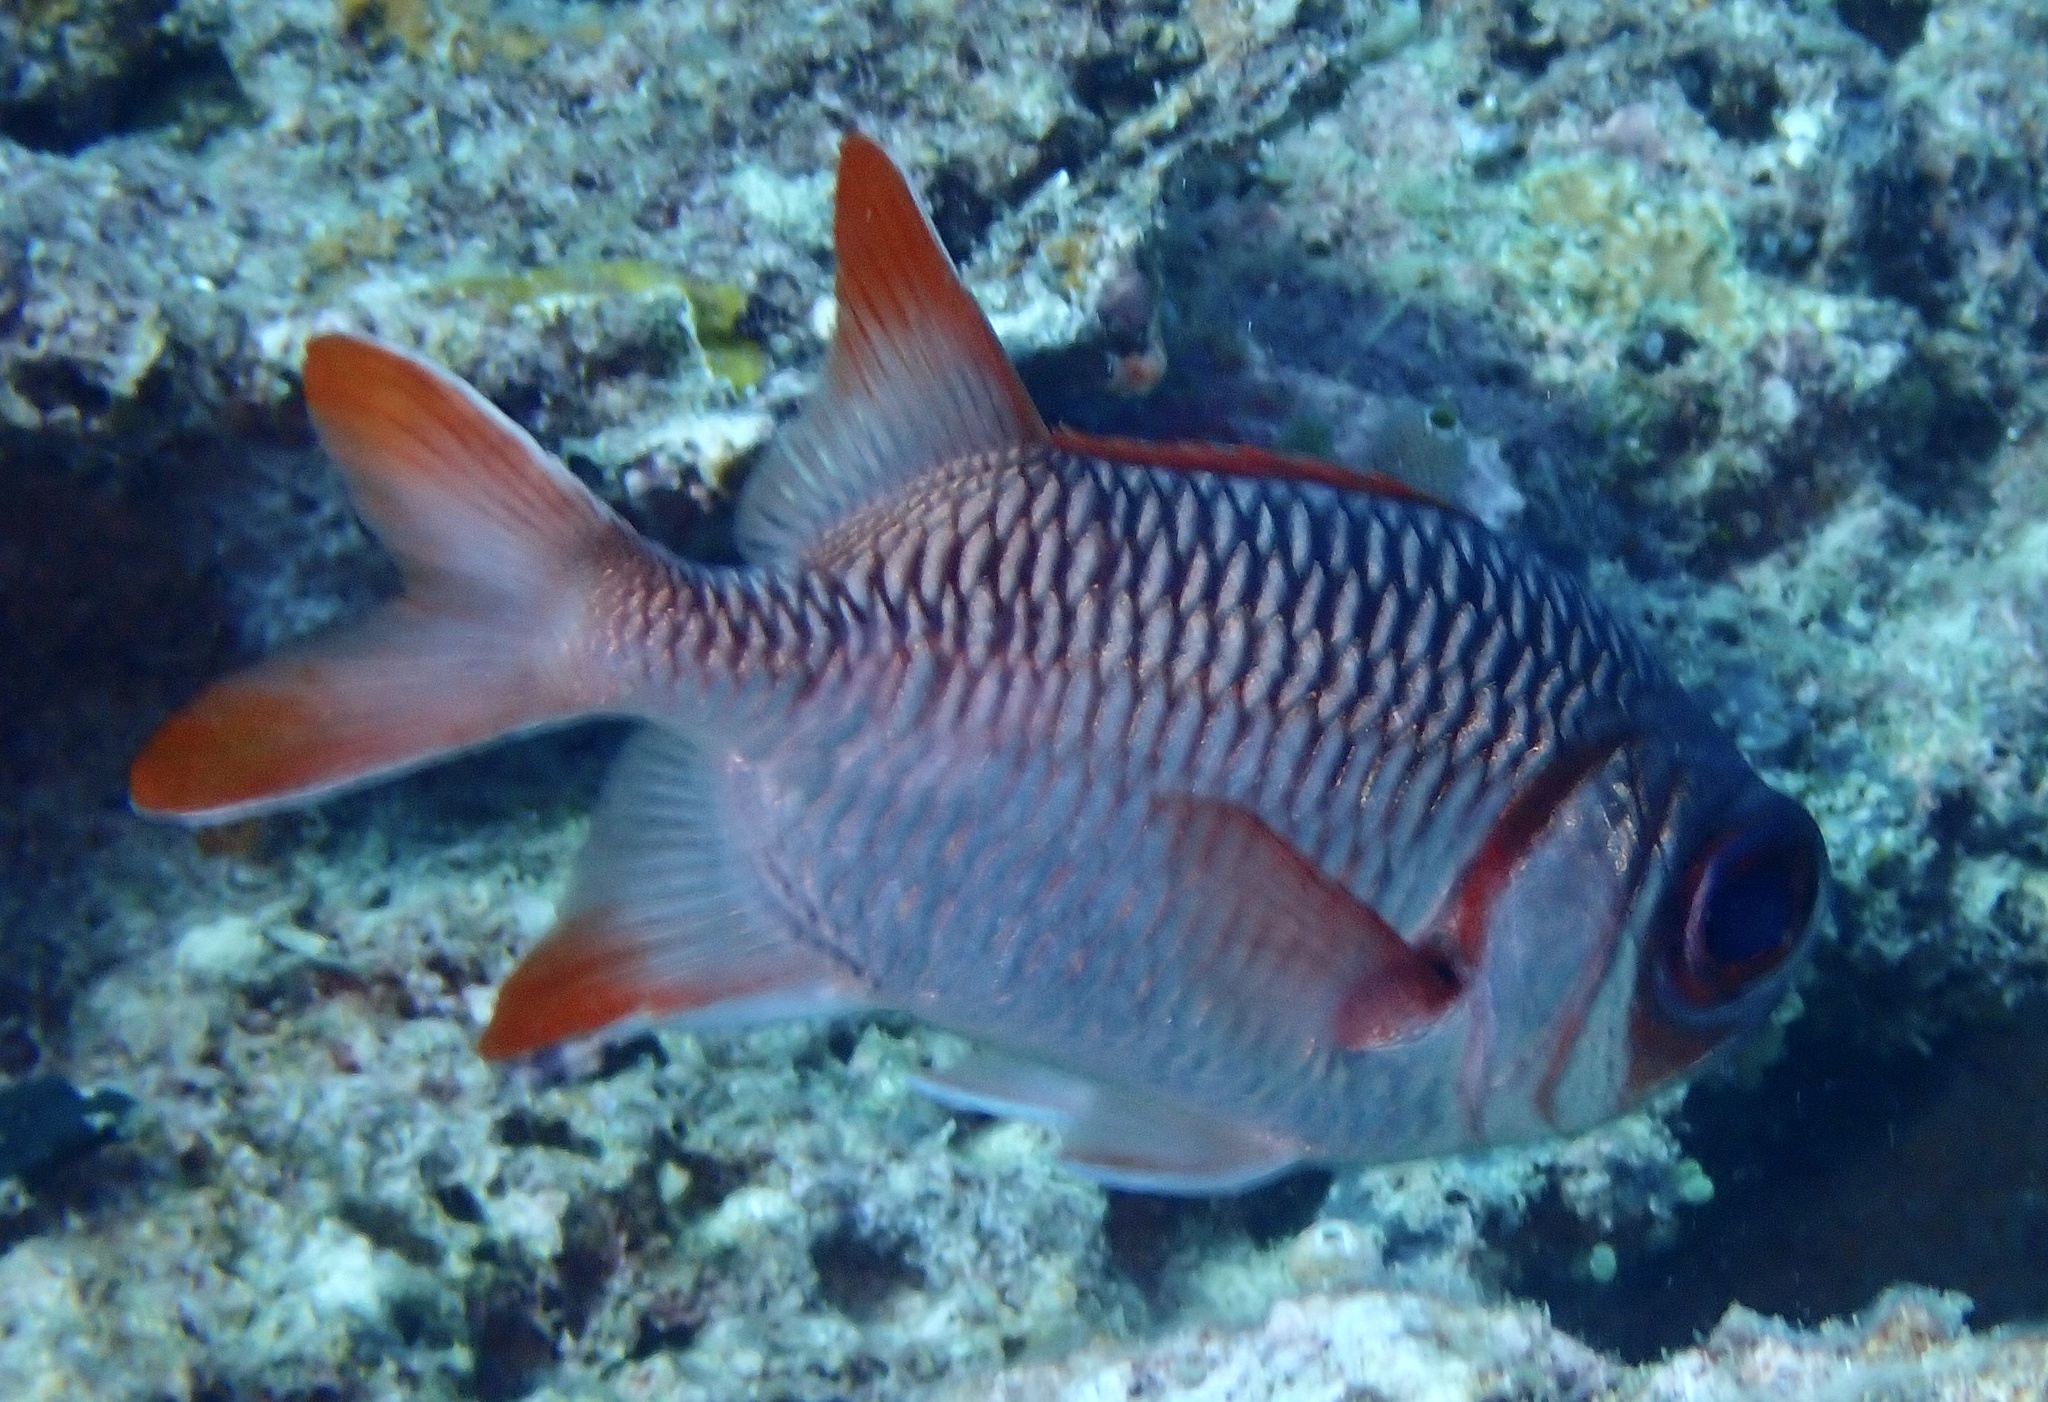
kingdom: Animalia
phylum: Chordata
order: Beryciformes
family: Holocentridae
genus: Myripristis
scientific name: Myripristis violacea
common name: Lattice soldierfish
